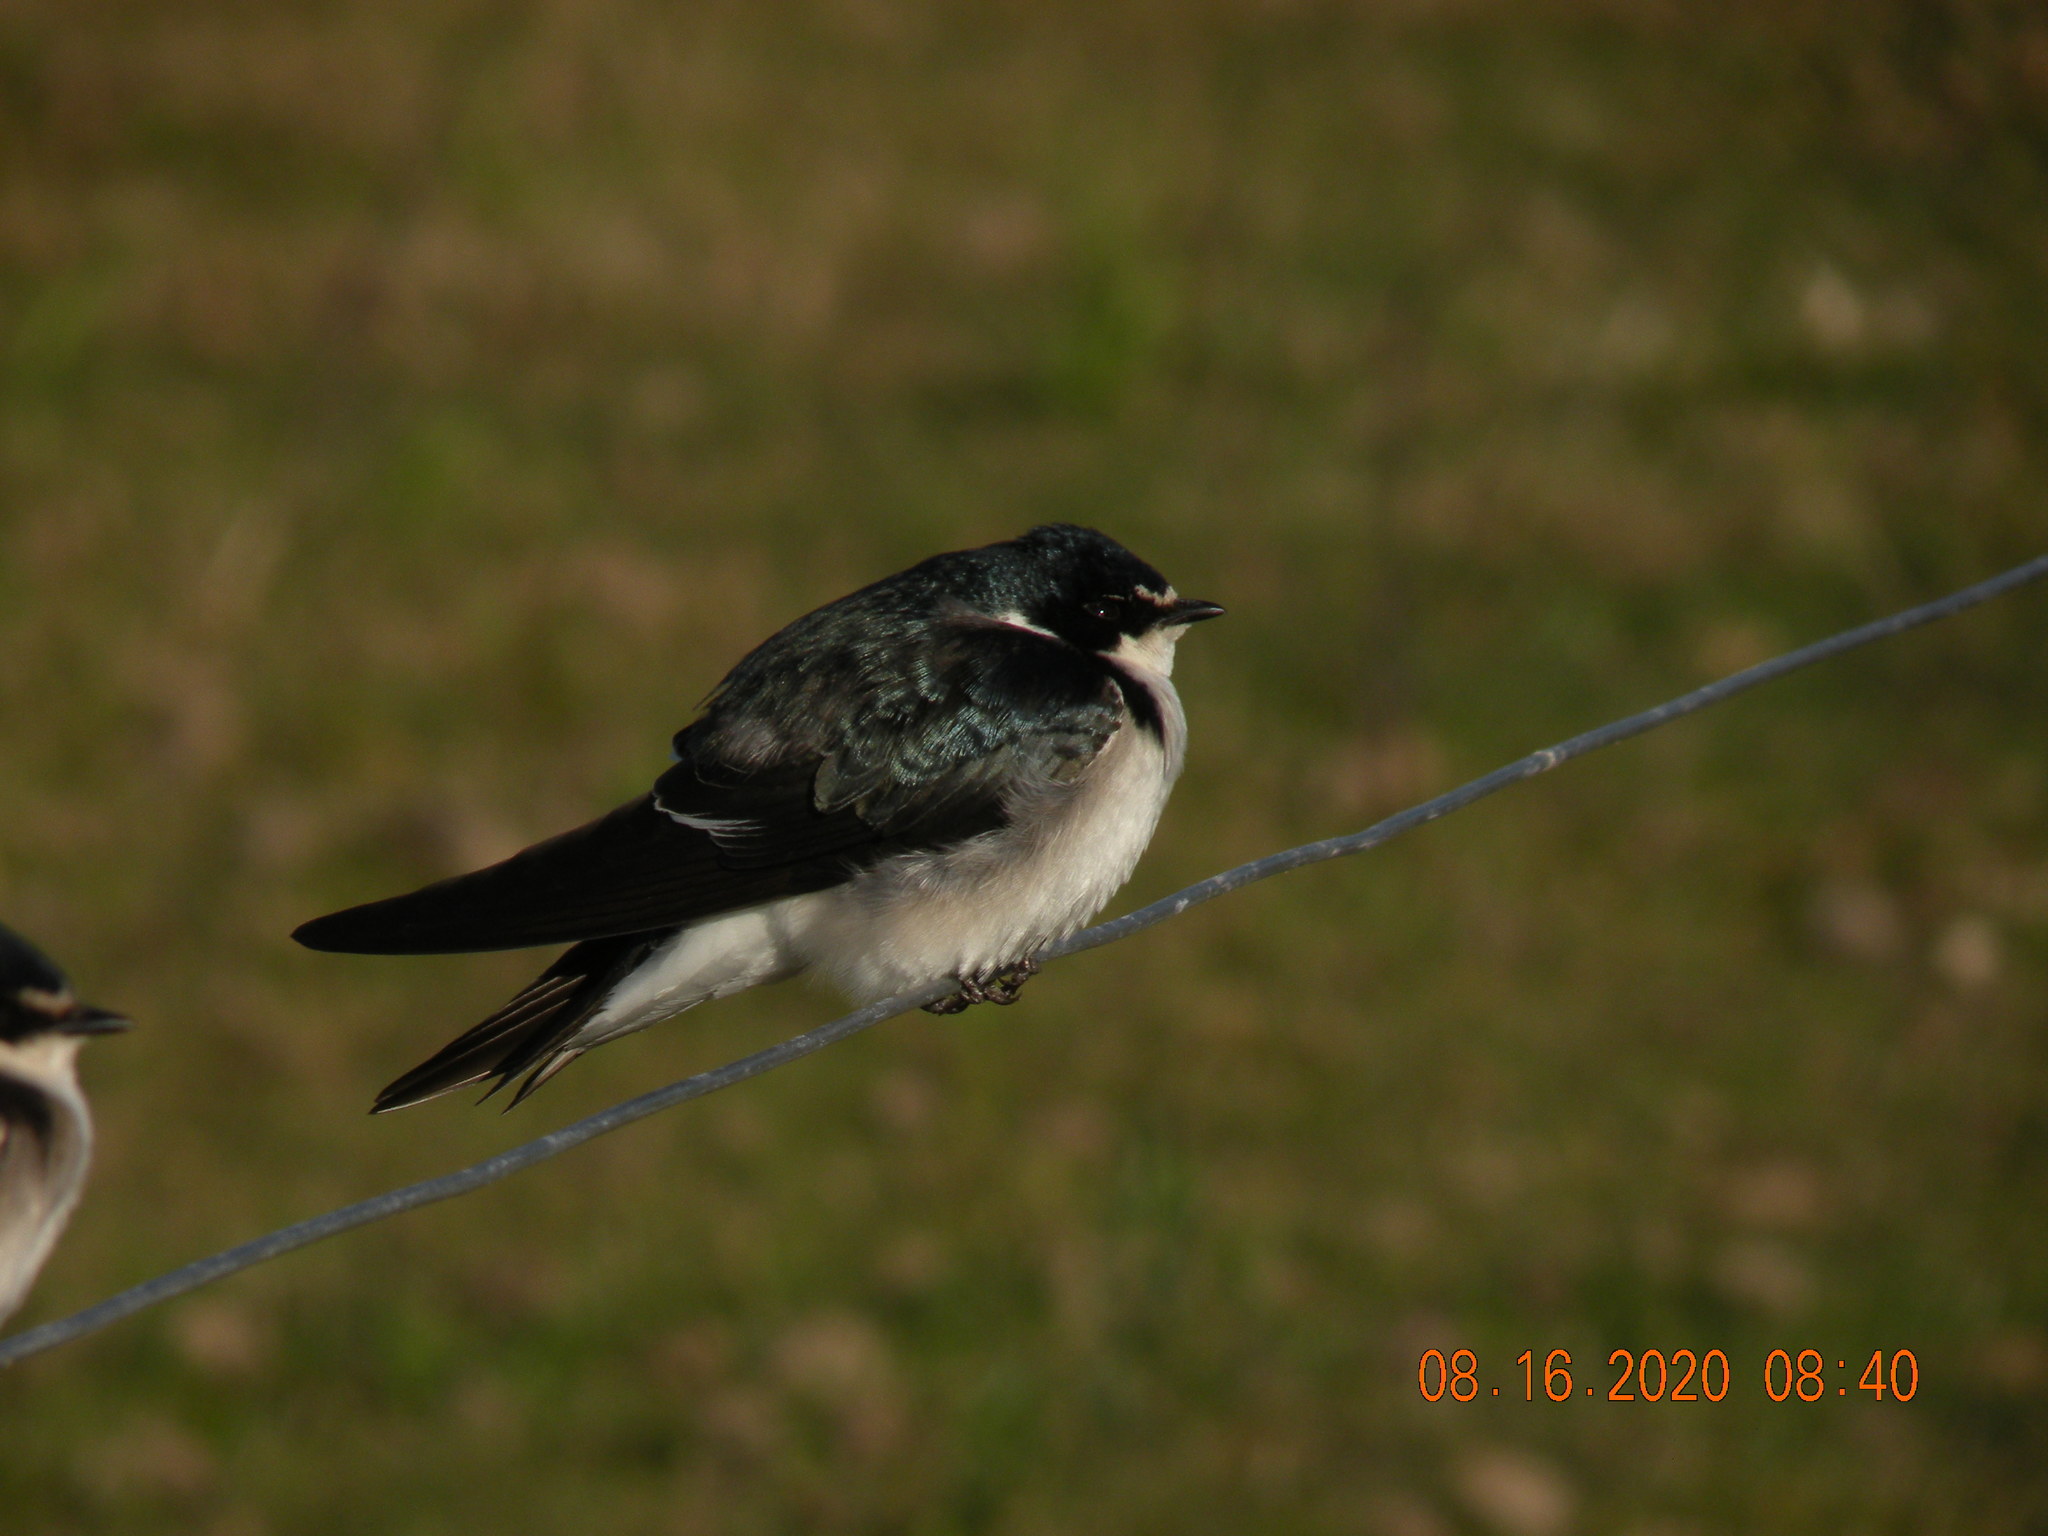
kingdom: Animalia
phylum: Chordata
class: Aves
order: Passeriformes
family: Hirundinidae
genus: Tachycineta
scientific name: Tachycineta leucorrhoa
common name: White-rumped swallow
